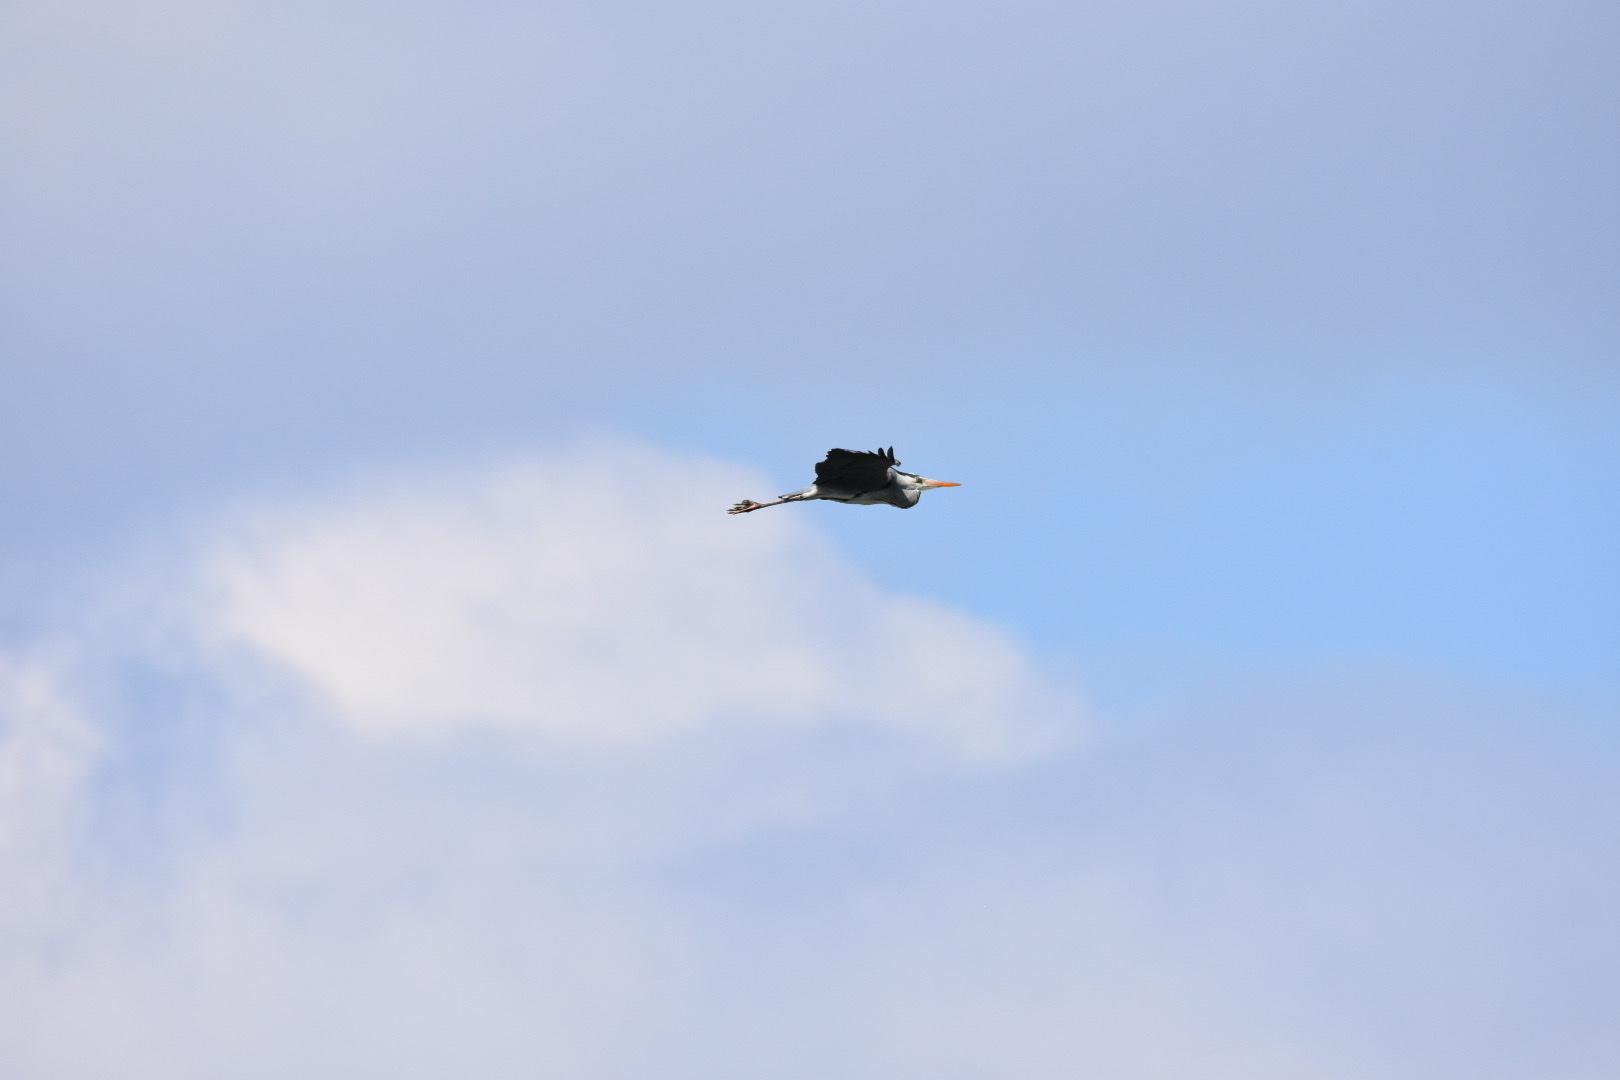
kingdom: Animalia
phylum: Chordata
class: Aves
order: Pelecaniformes
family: Ardeidae
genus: Ardea
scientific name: Ardea cinerea
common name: Grey heron
